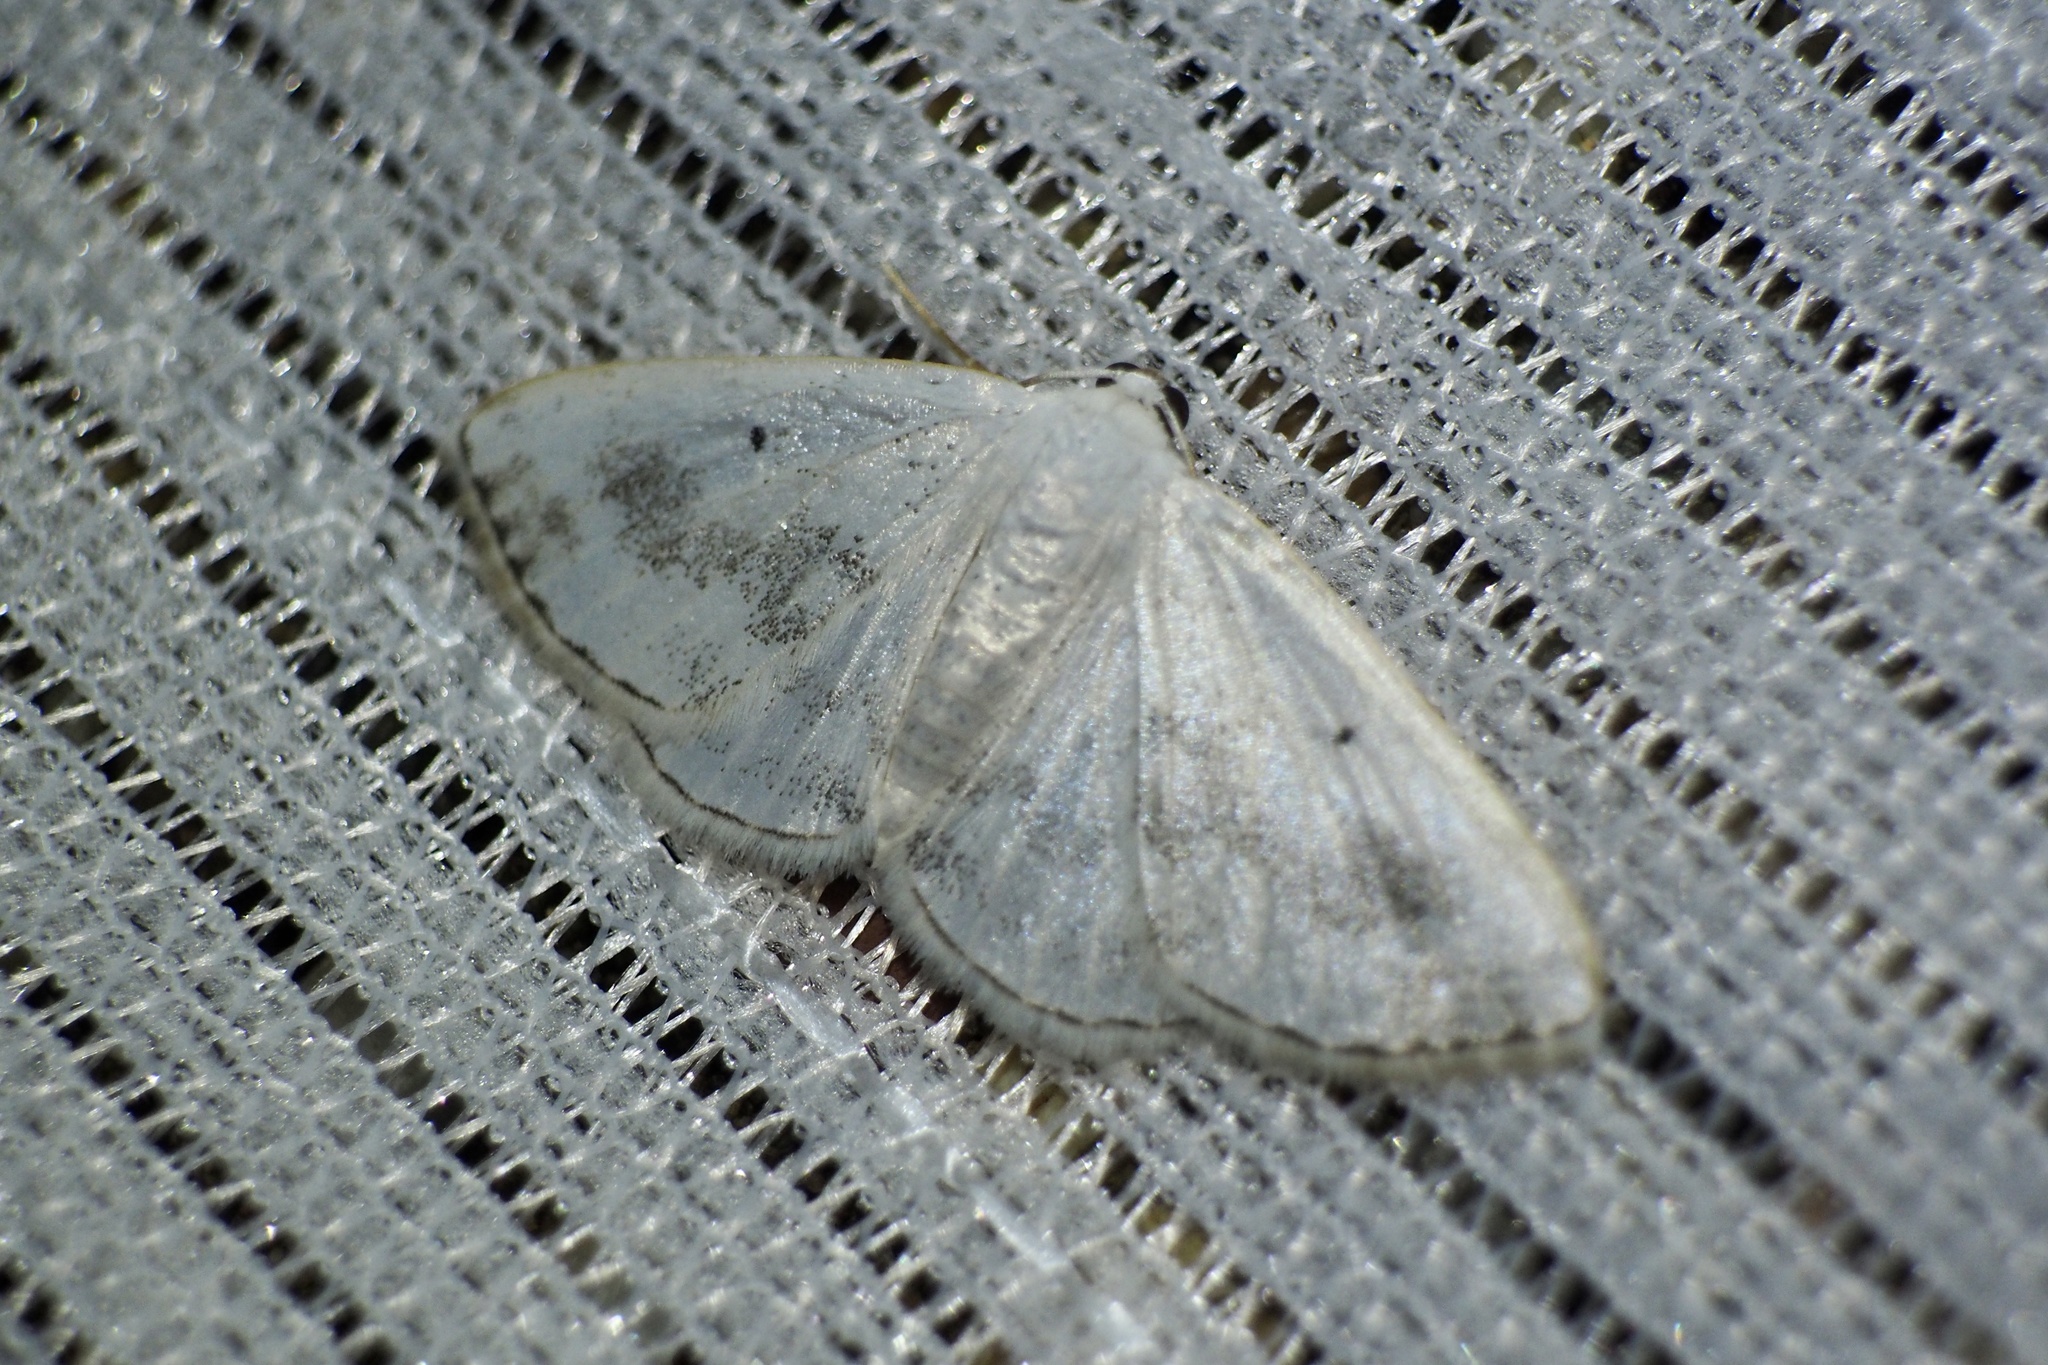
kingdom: Animalia
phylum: Arthropoda
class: Insecta
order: Lepidoptera
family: Geometridae
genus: Lomographa
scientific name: Lomographa temerata
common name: Clouded silver
